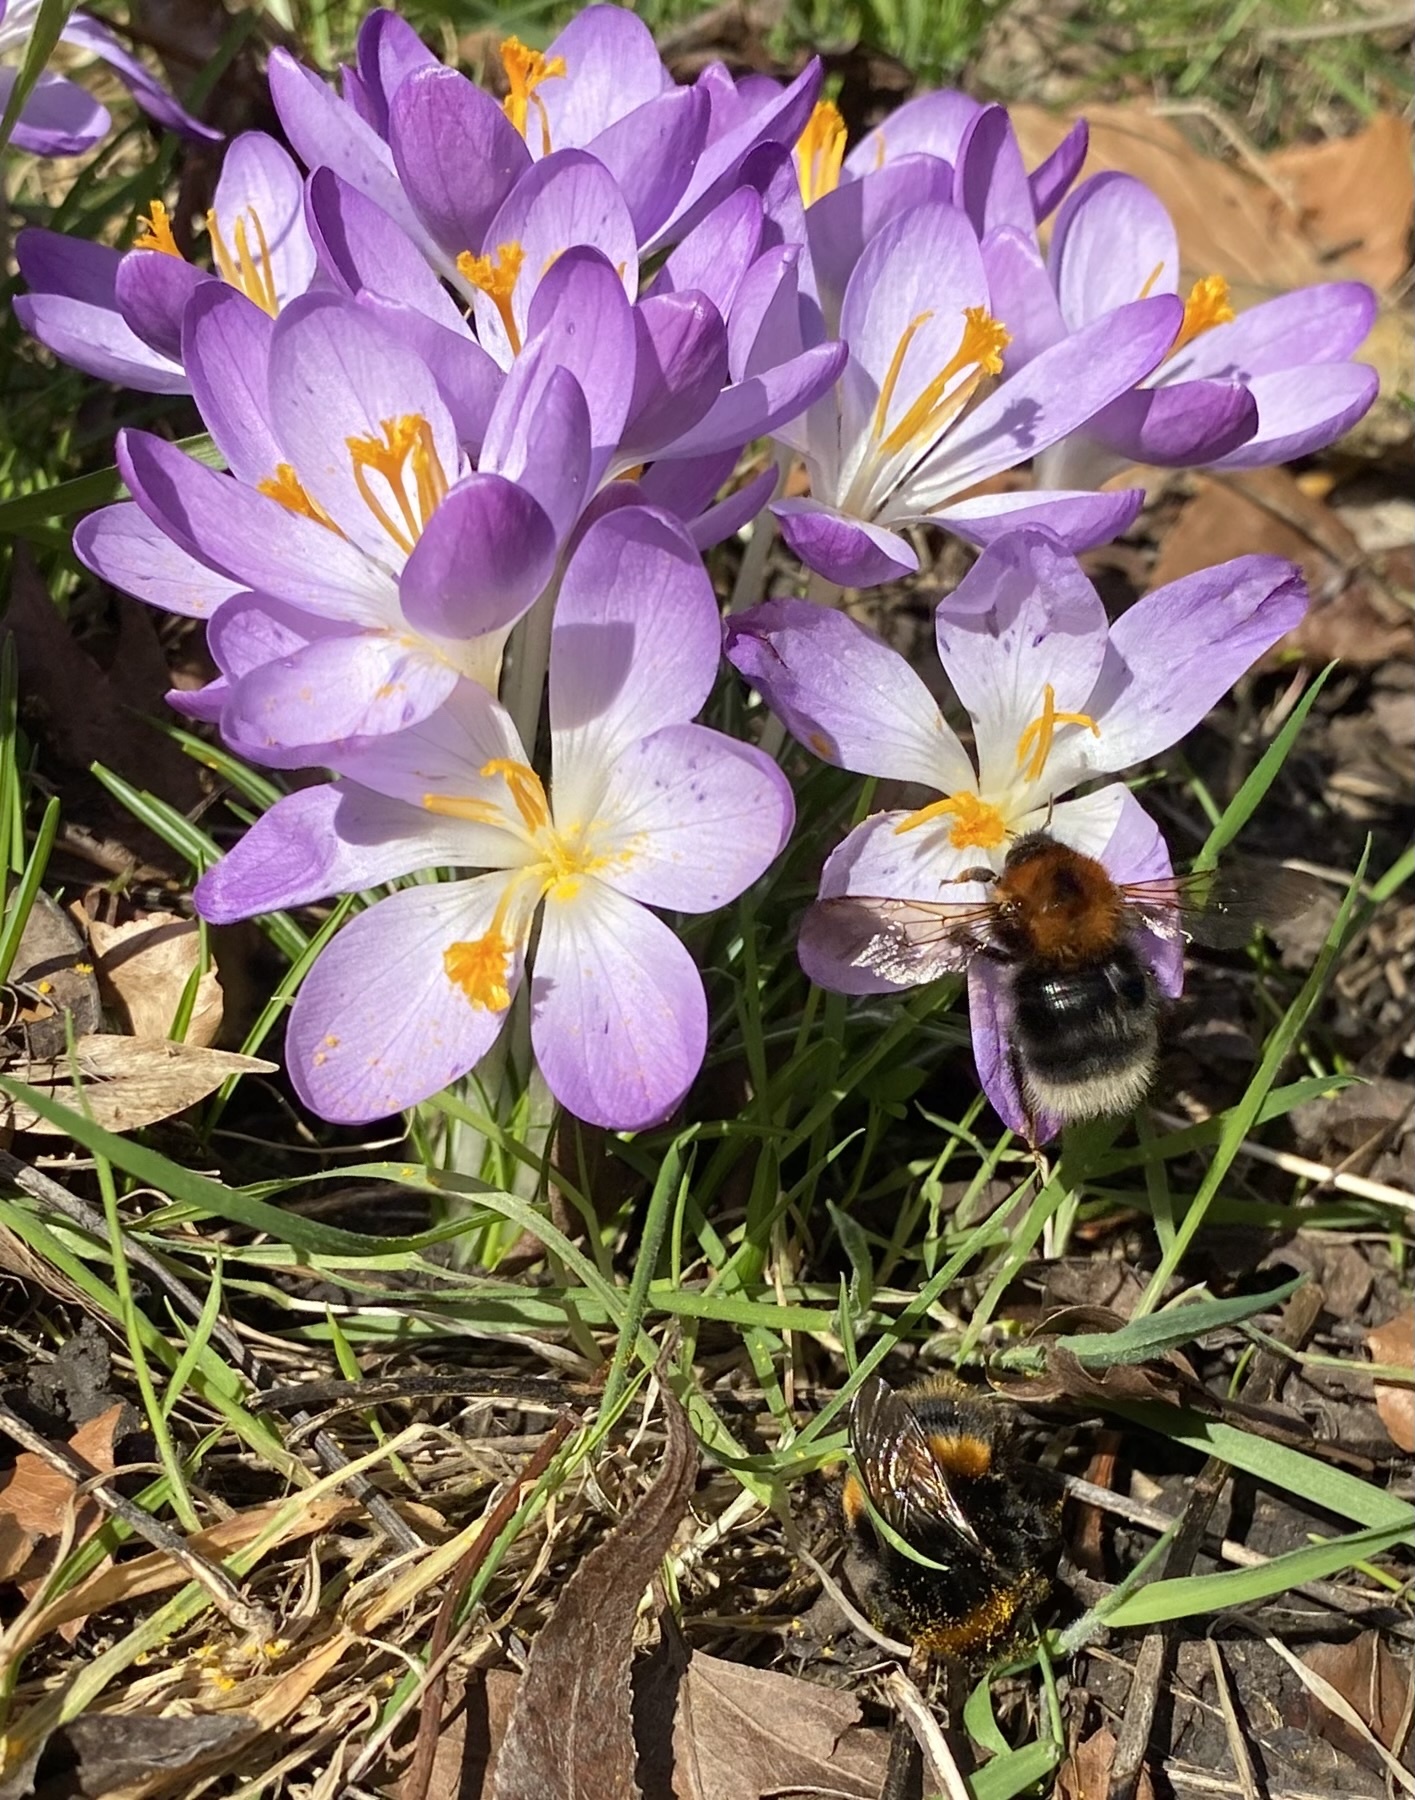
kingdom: Animalia
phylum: Arthropoda
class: Insecta
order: Hymenoptera
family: Apidae
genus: Bombus
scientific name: Bombus hypnorum
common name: New garden bumblebee
